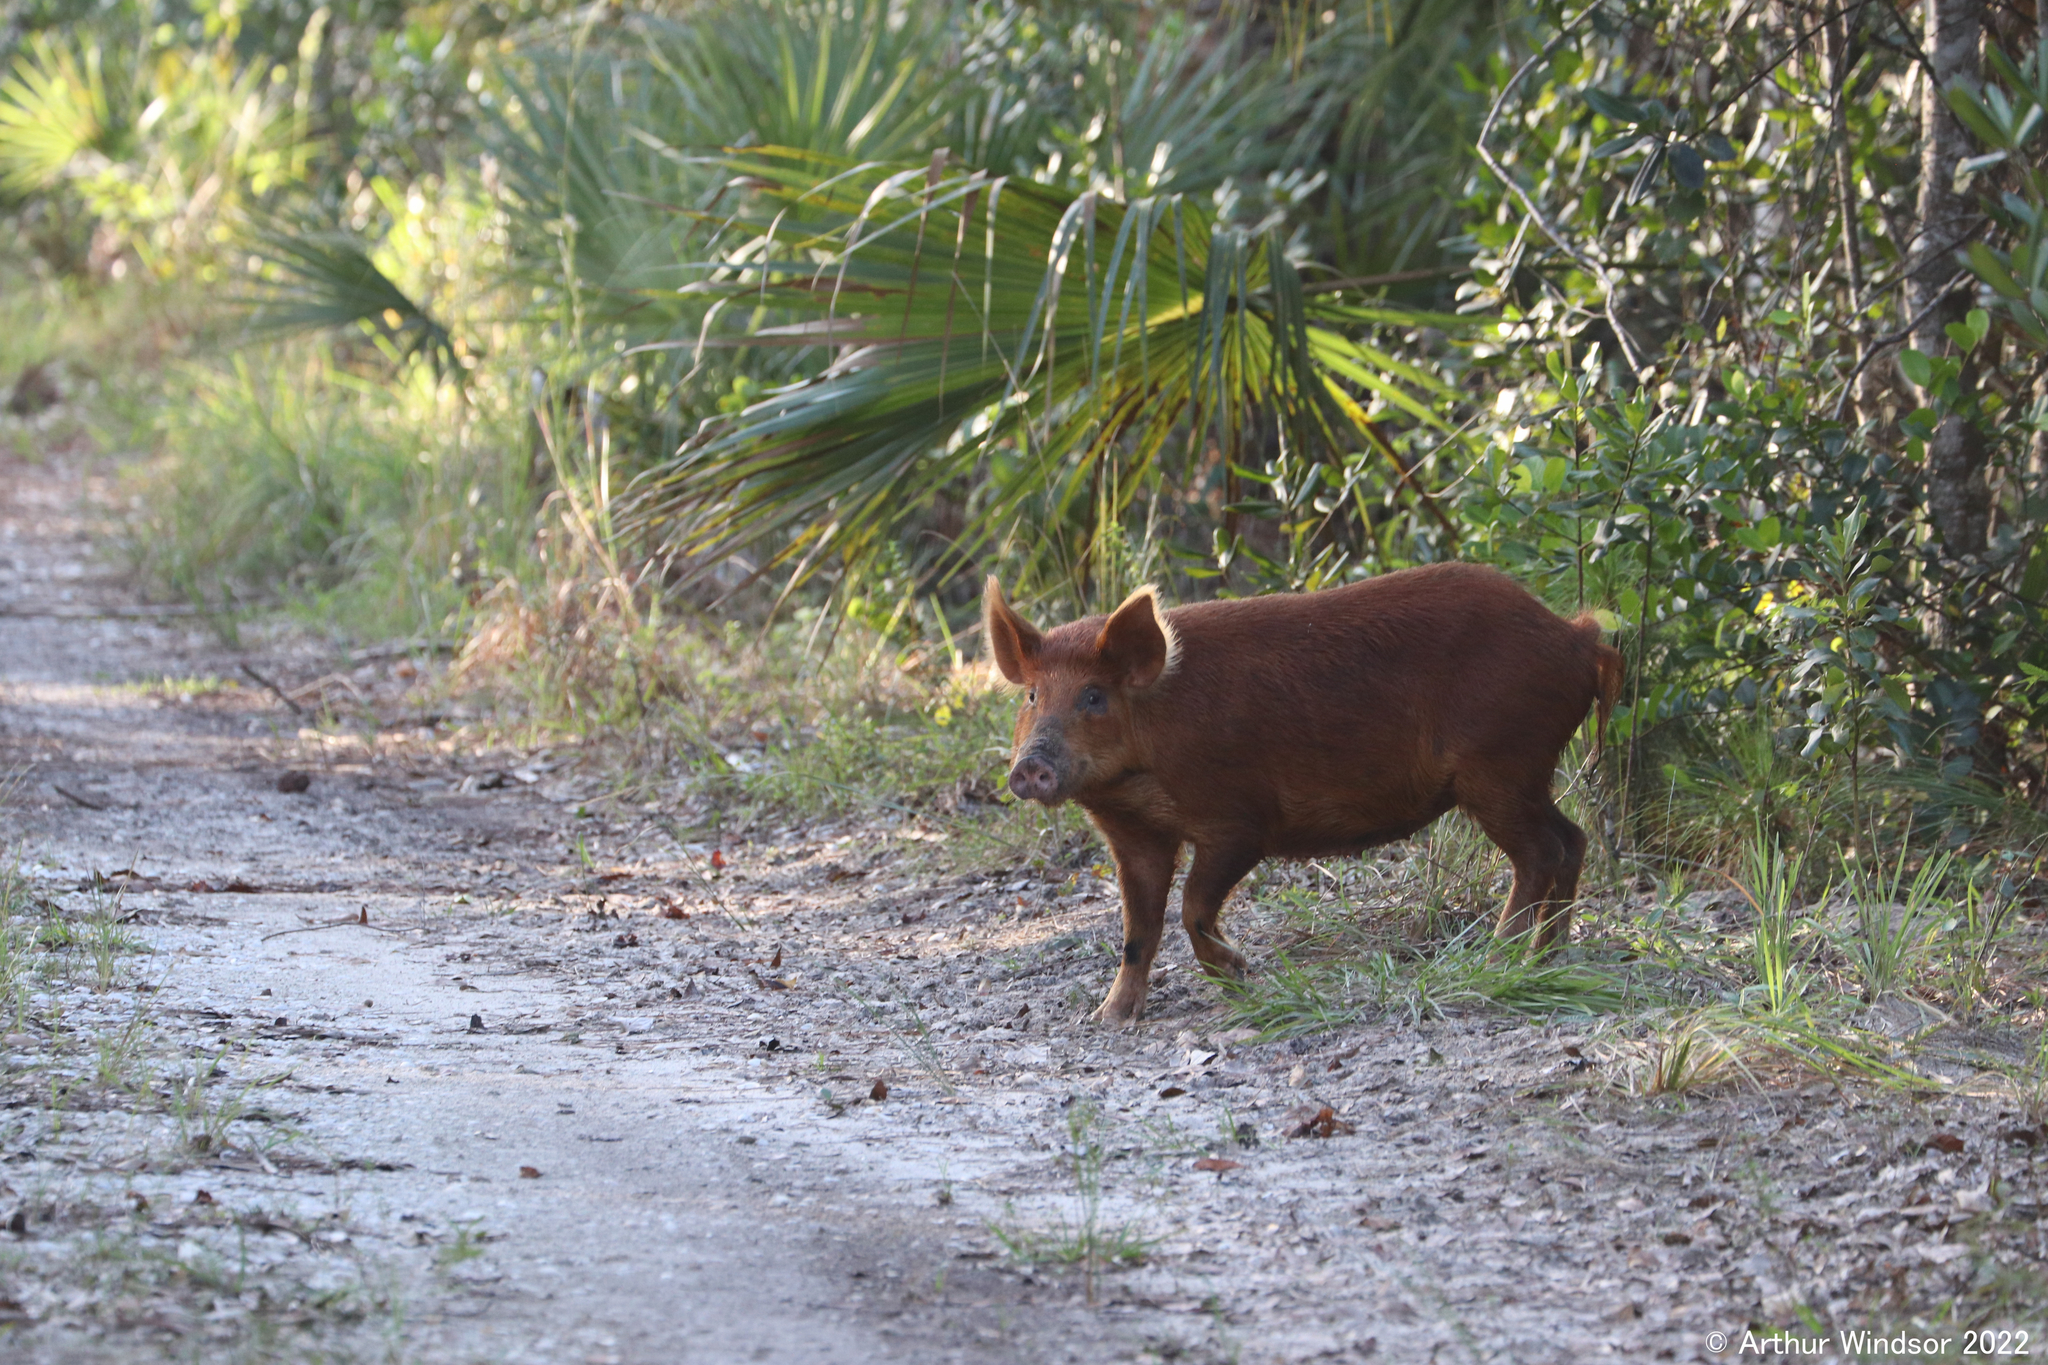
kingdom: Animalia
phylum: Chordata
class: Mammalia
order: Artiodactyla
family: Suidae
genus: Sus
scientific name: Sus scrofa
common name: Wild boar
